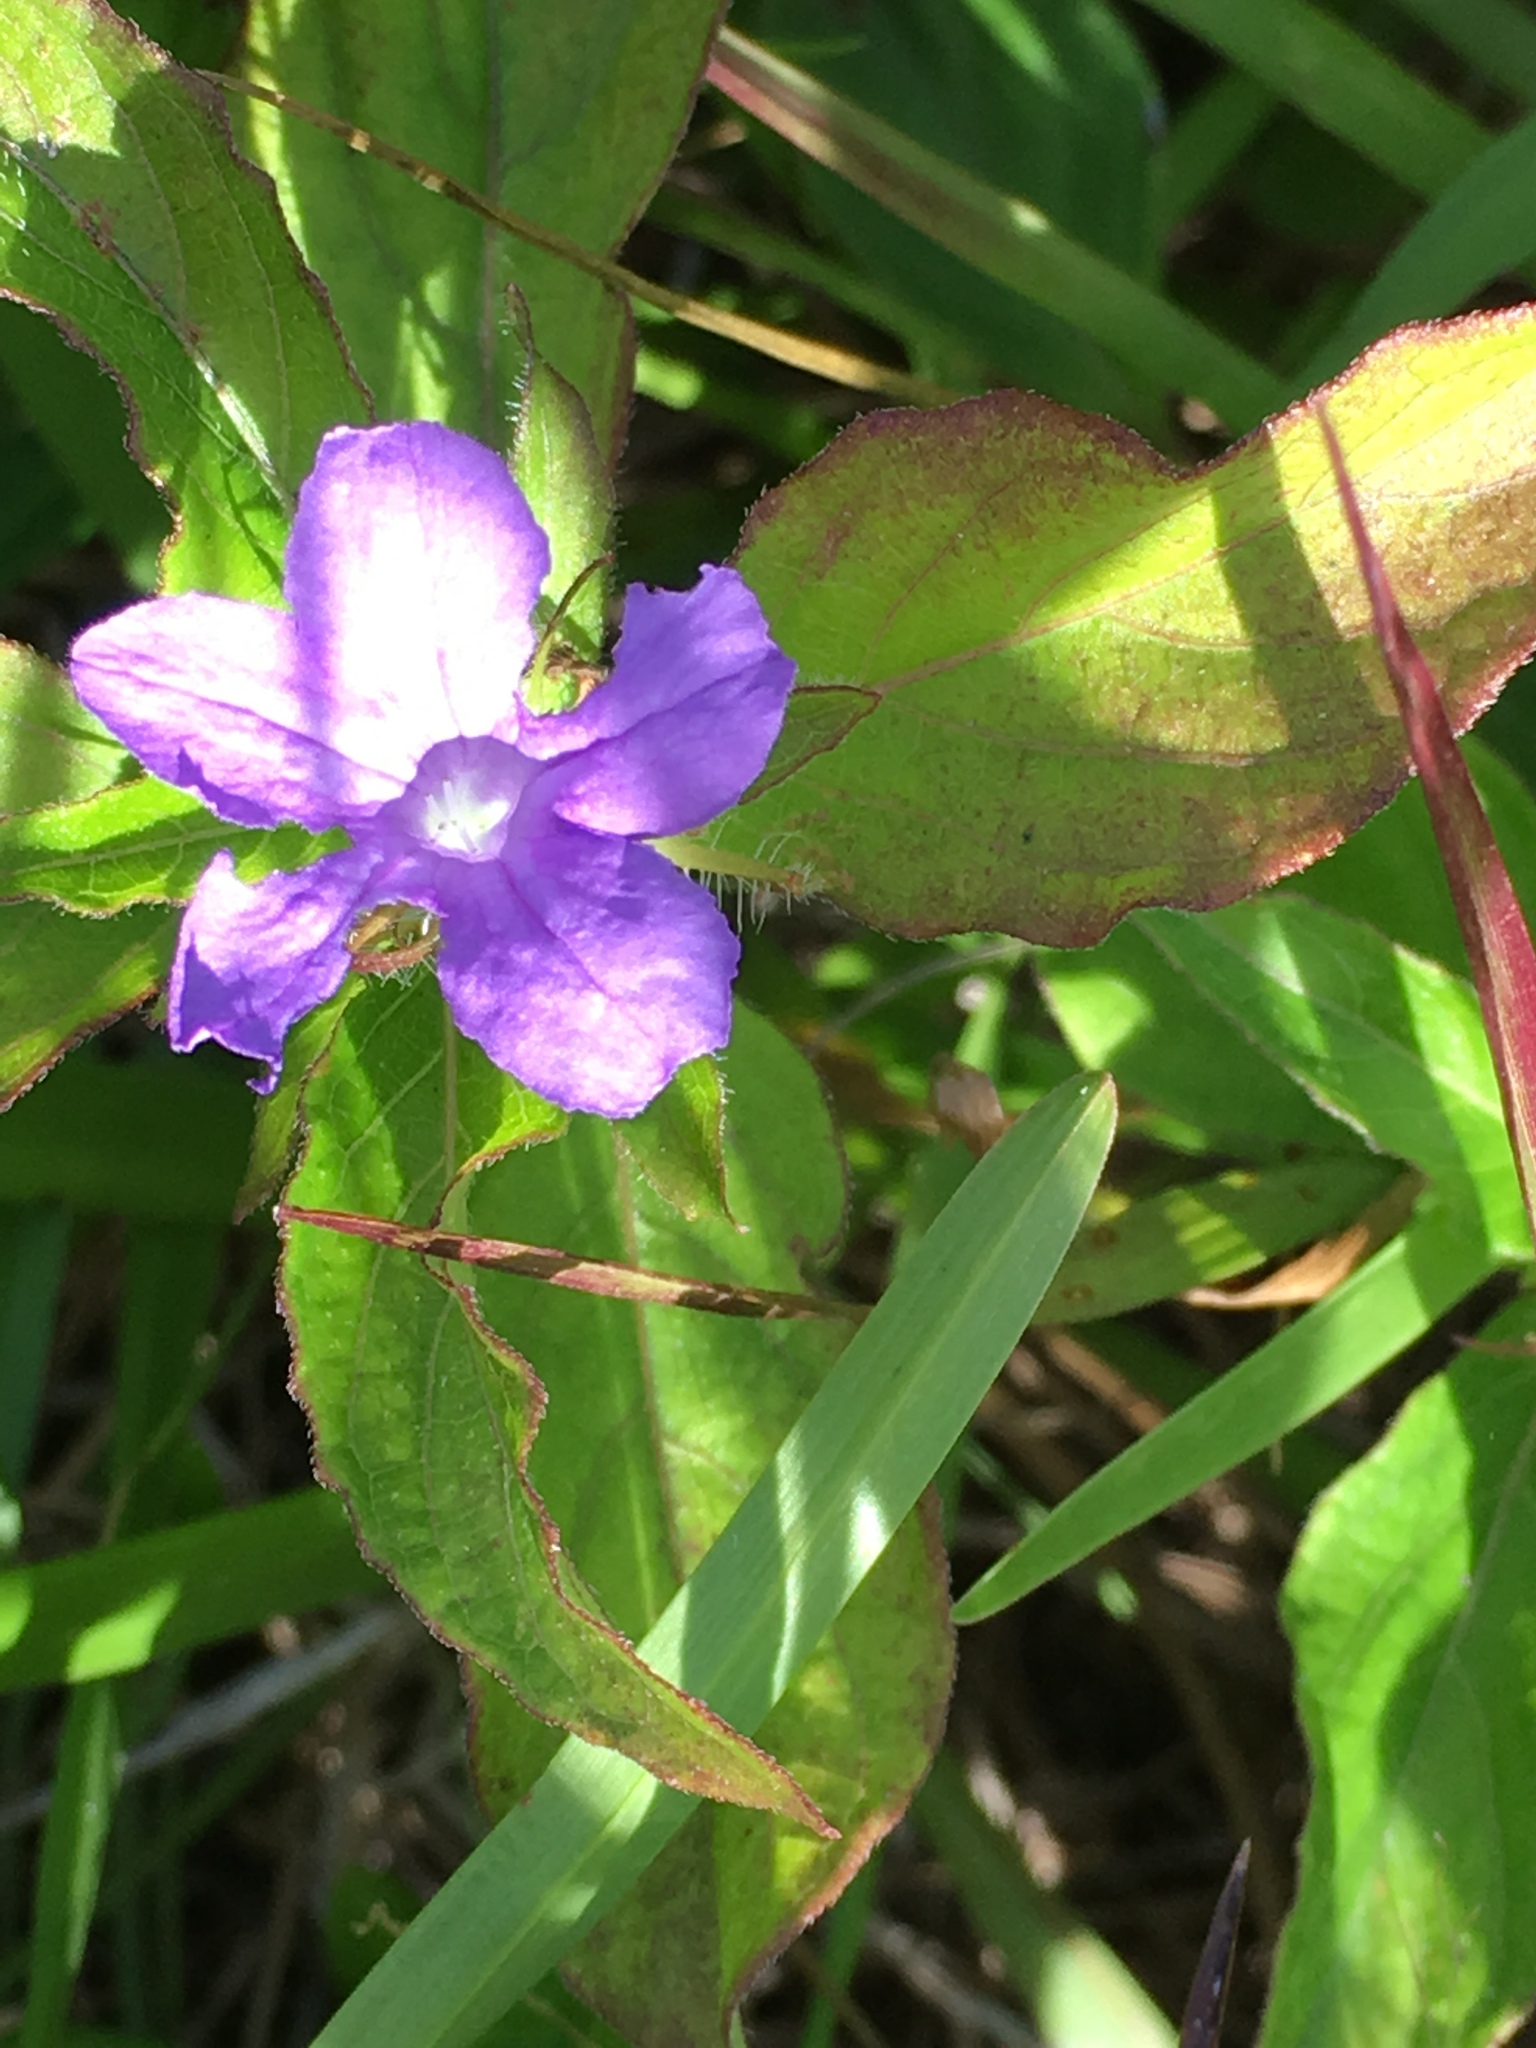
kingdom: Plantae
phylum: Tracheophyta
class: Magnoliopsida
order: Lamiales
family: Acanthaceae
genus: Ruellia
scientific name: Ruellia caroliniensis
